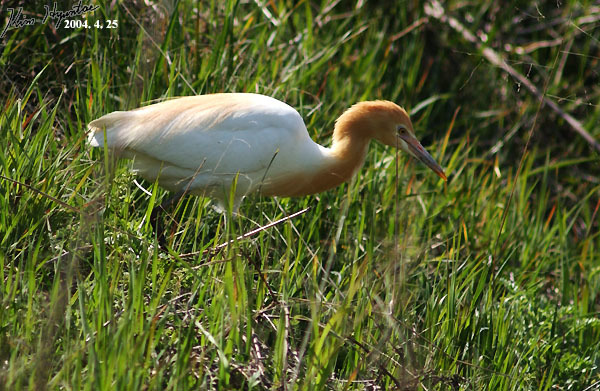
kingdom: Animalia
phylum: Chordata
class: Aves
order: Pelecaniformes
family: Ardeidae
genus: Bubulcus
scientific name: Bubulcus coromandus
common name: Eastern cattle egret
